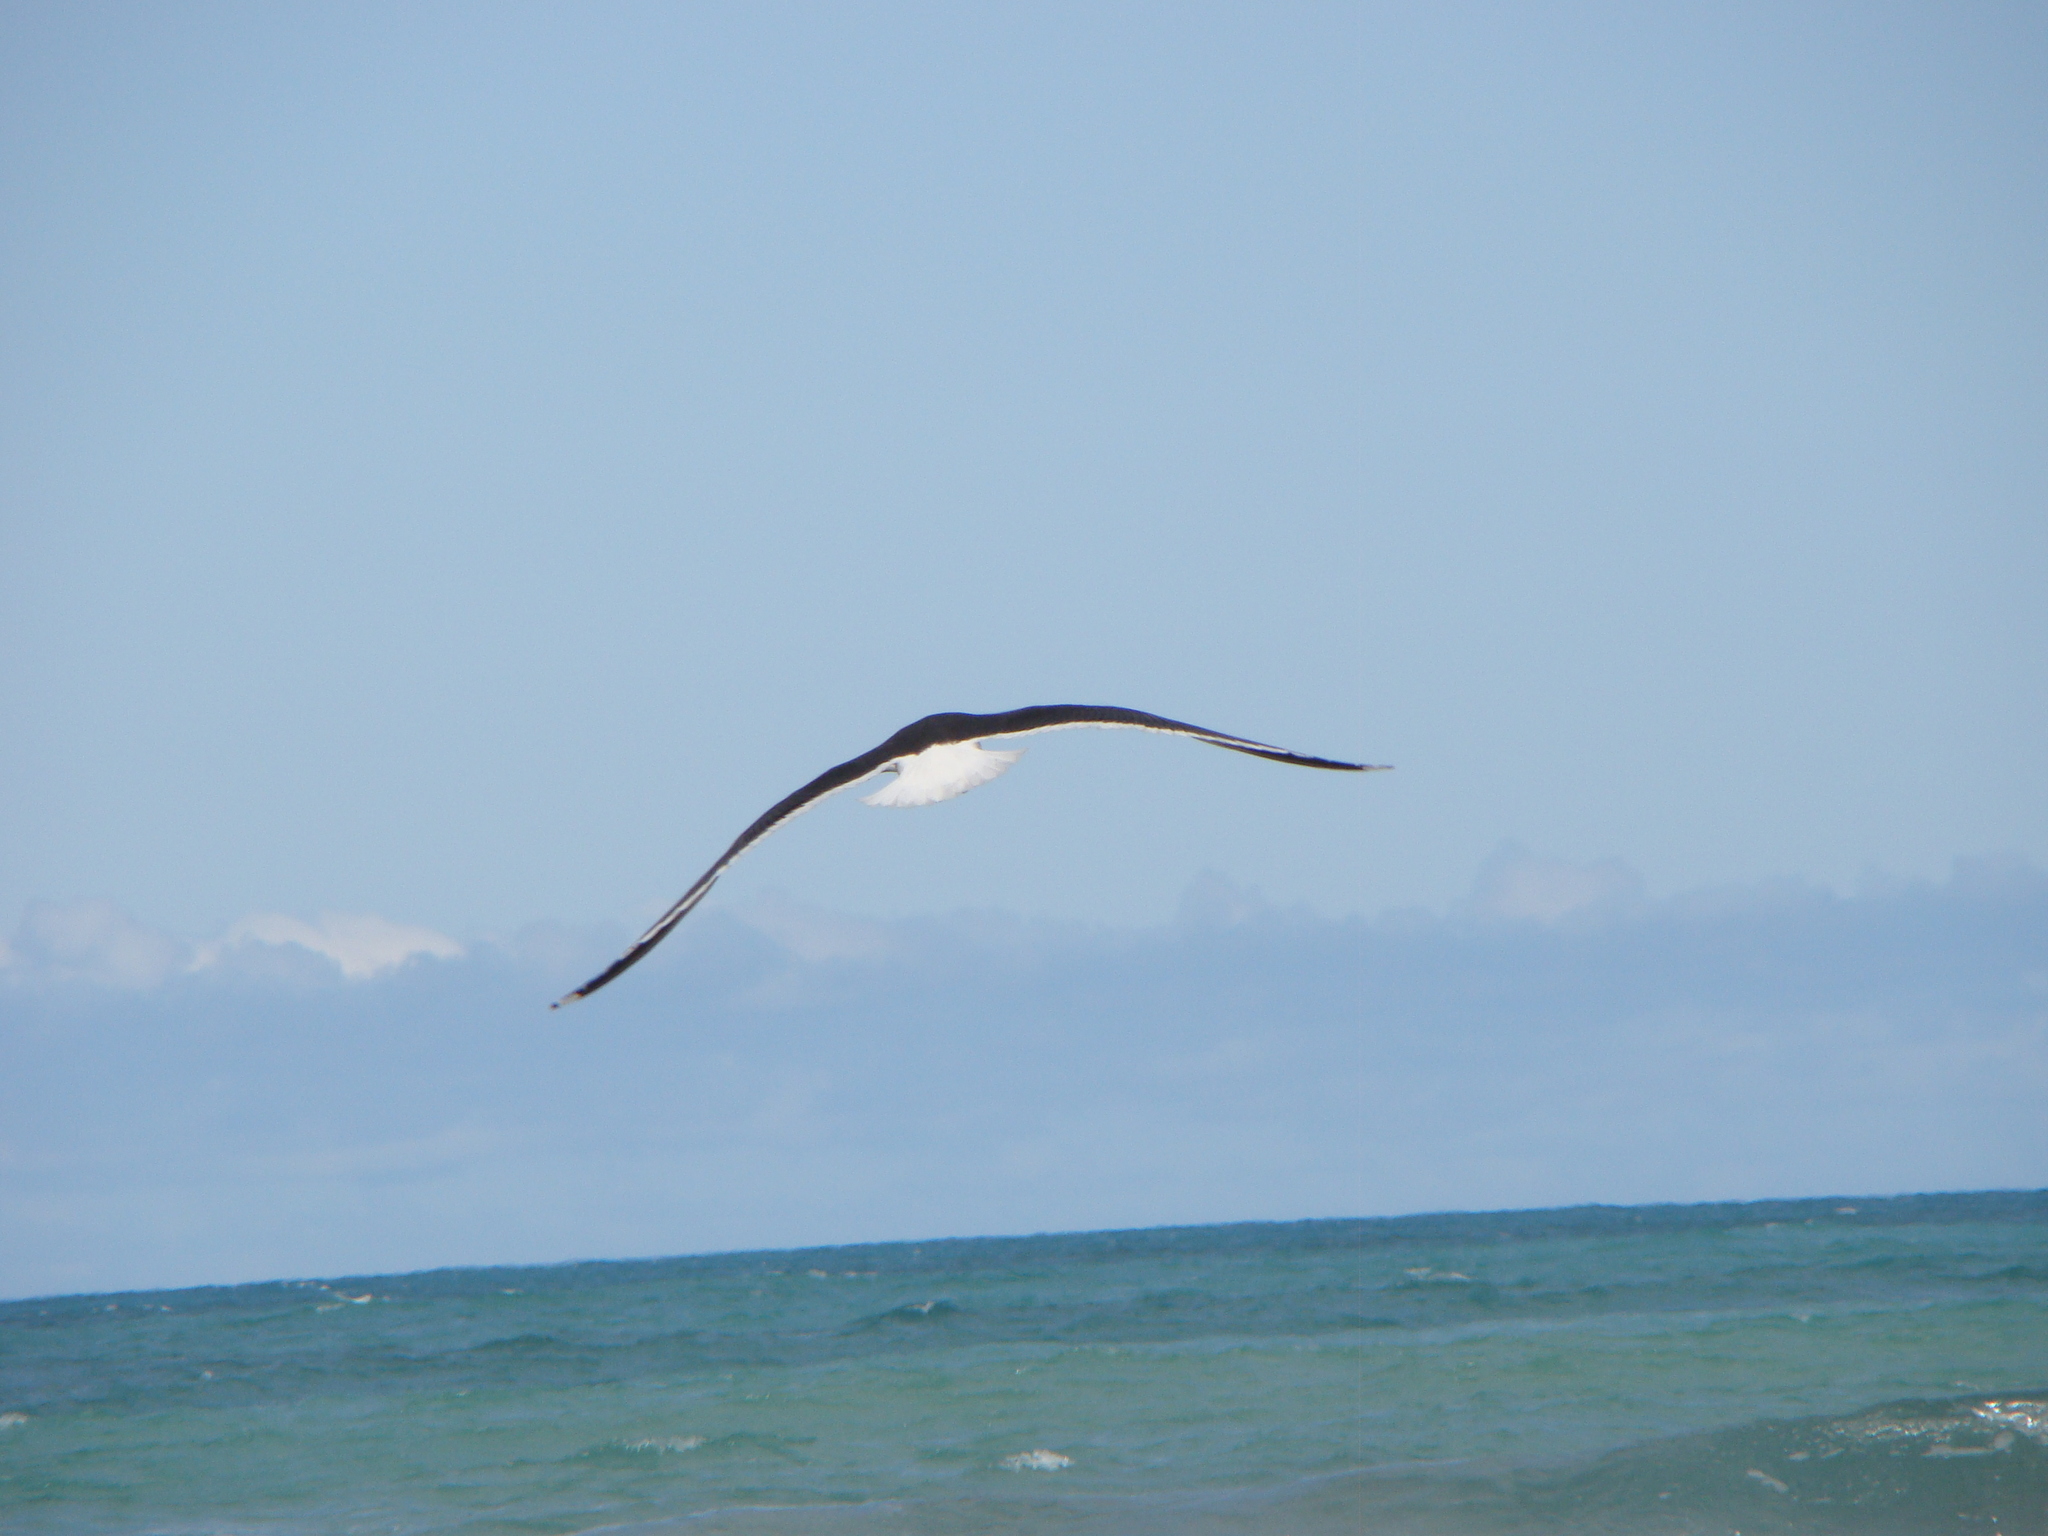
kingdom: Animalia
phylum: Chordata
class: Aves
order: Charadriiformes
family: Laridae
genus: Larus
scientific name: Larus dominicanus
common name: Kelp gull
